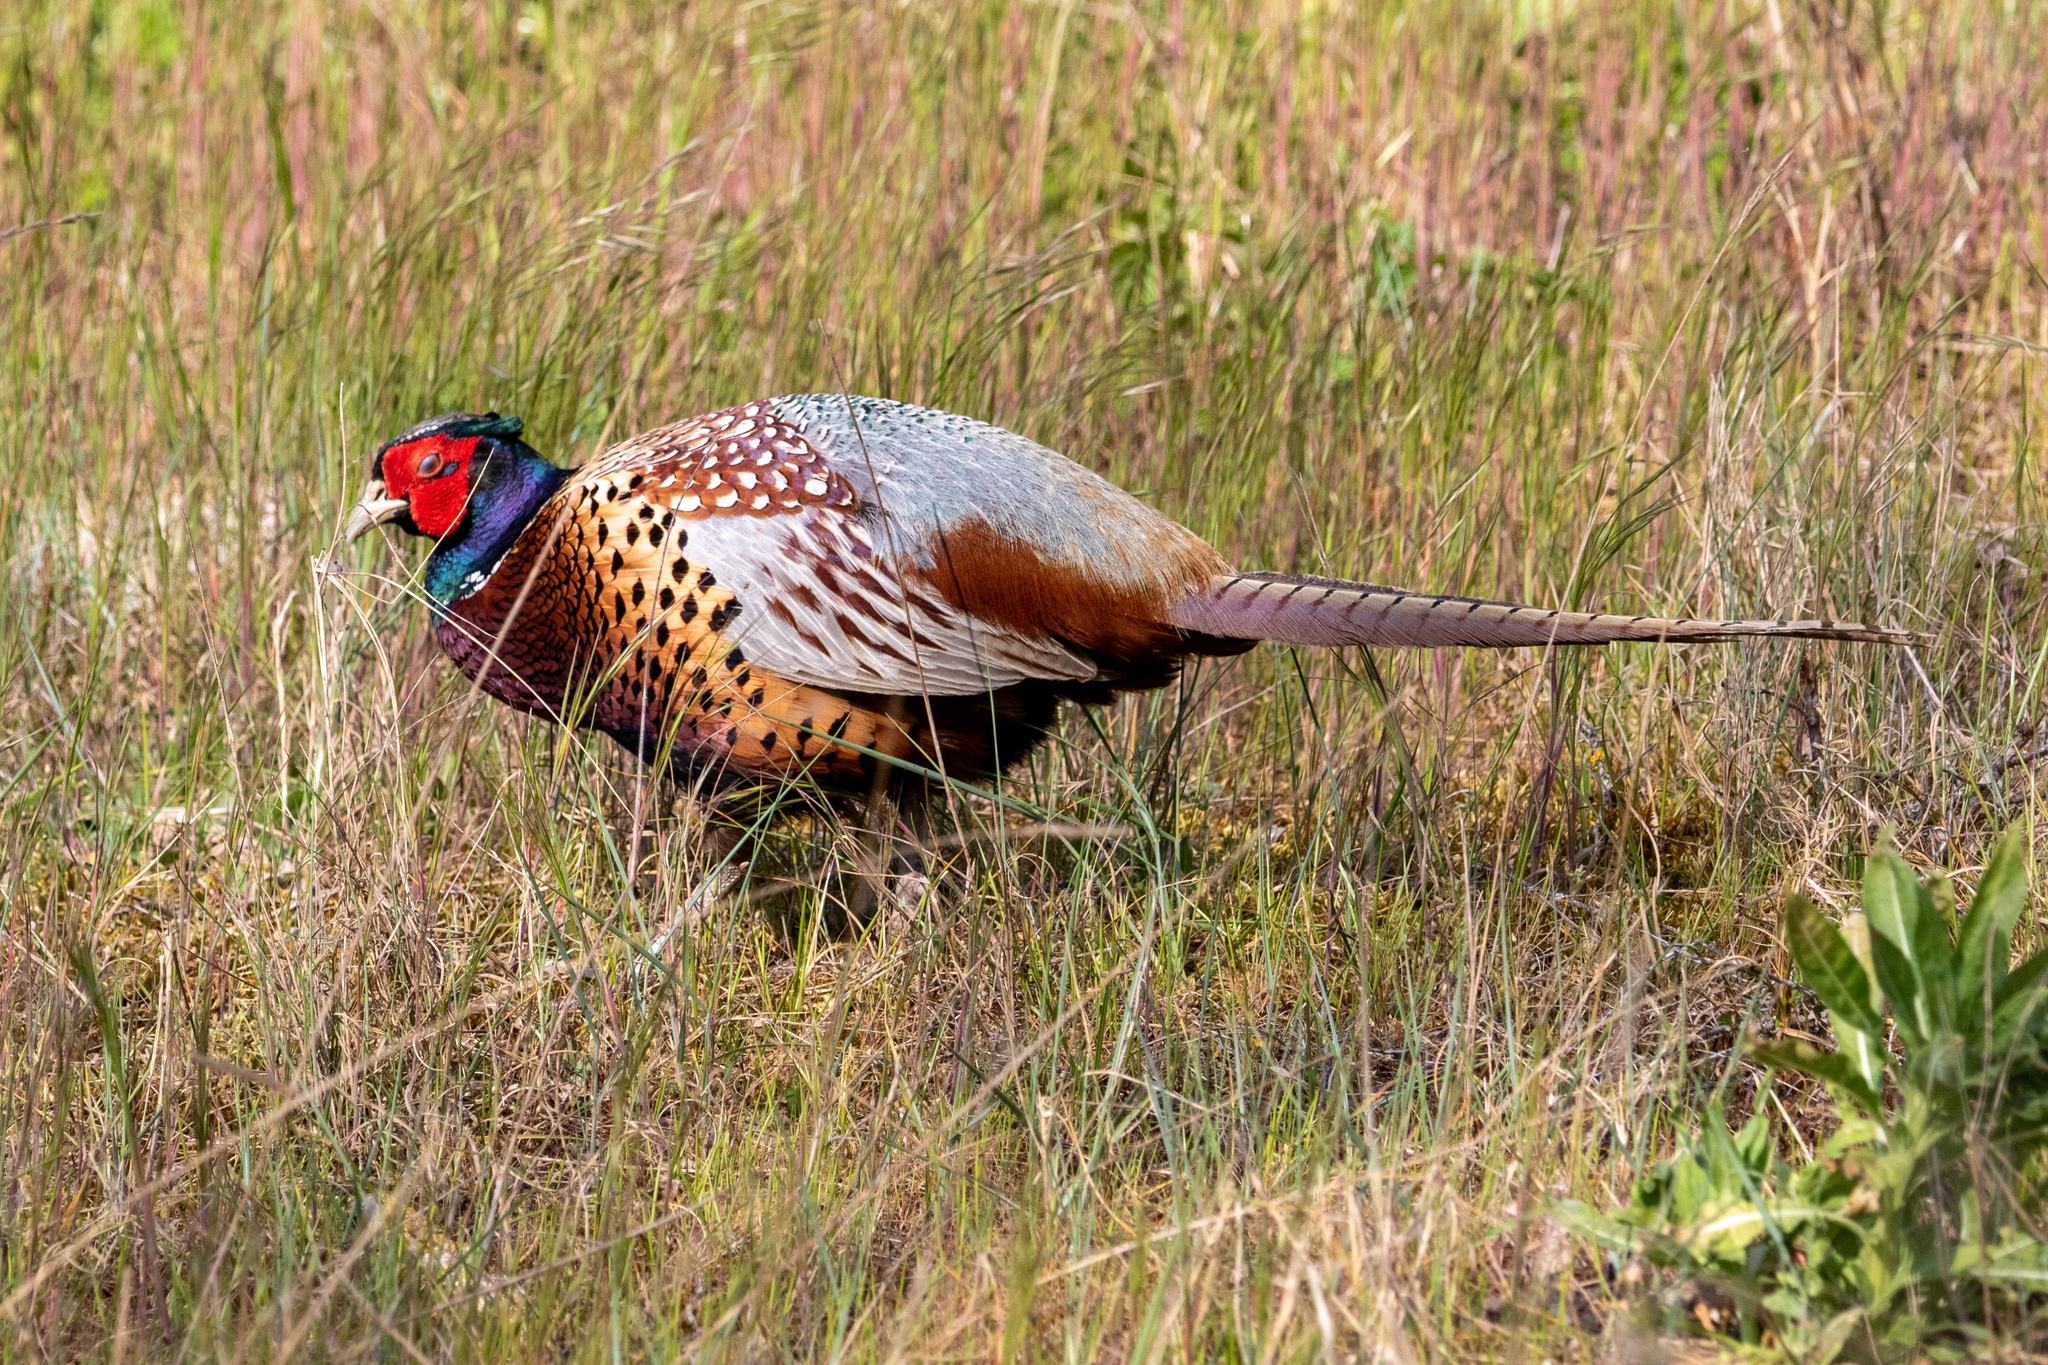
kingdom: Animalia
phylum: Chordata
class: Aves
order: Galliformes
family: Phasianidae
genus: Phasianus
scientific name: Phasianus colchicus
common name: Common pheasant
